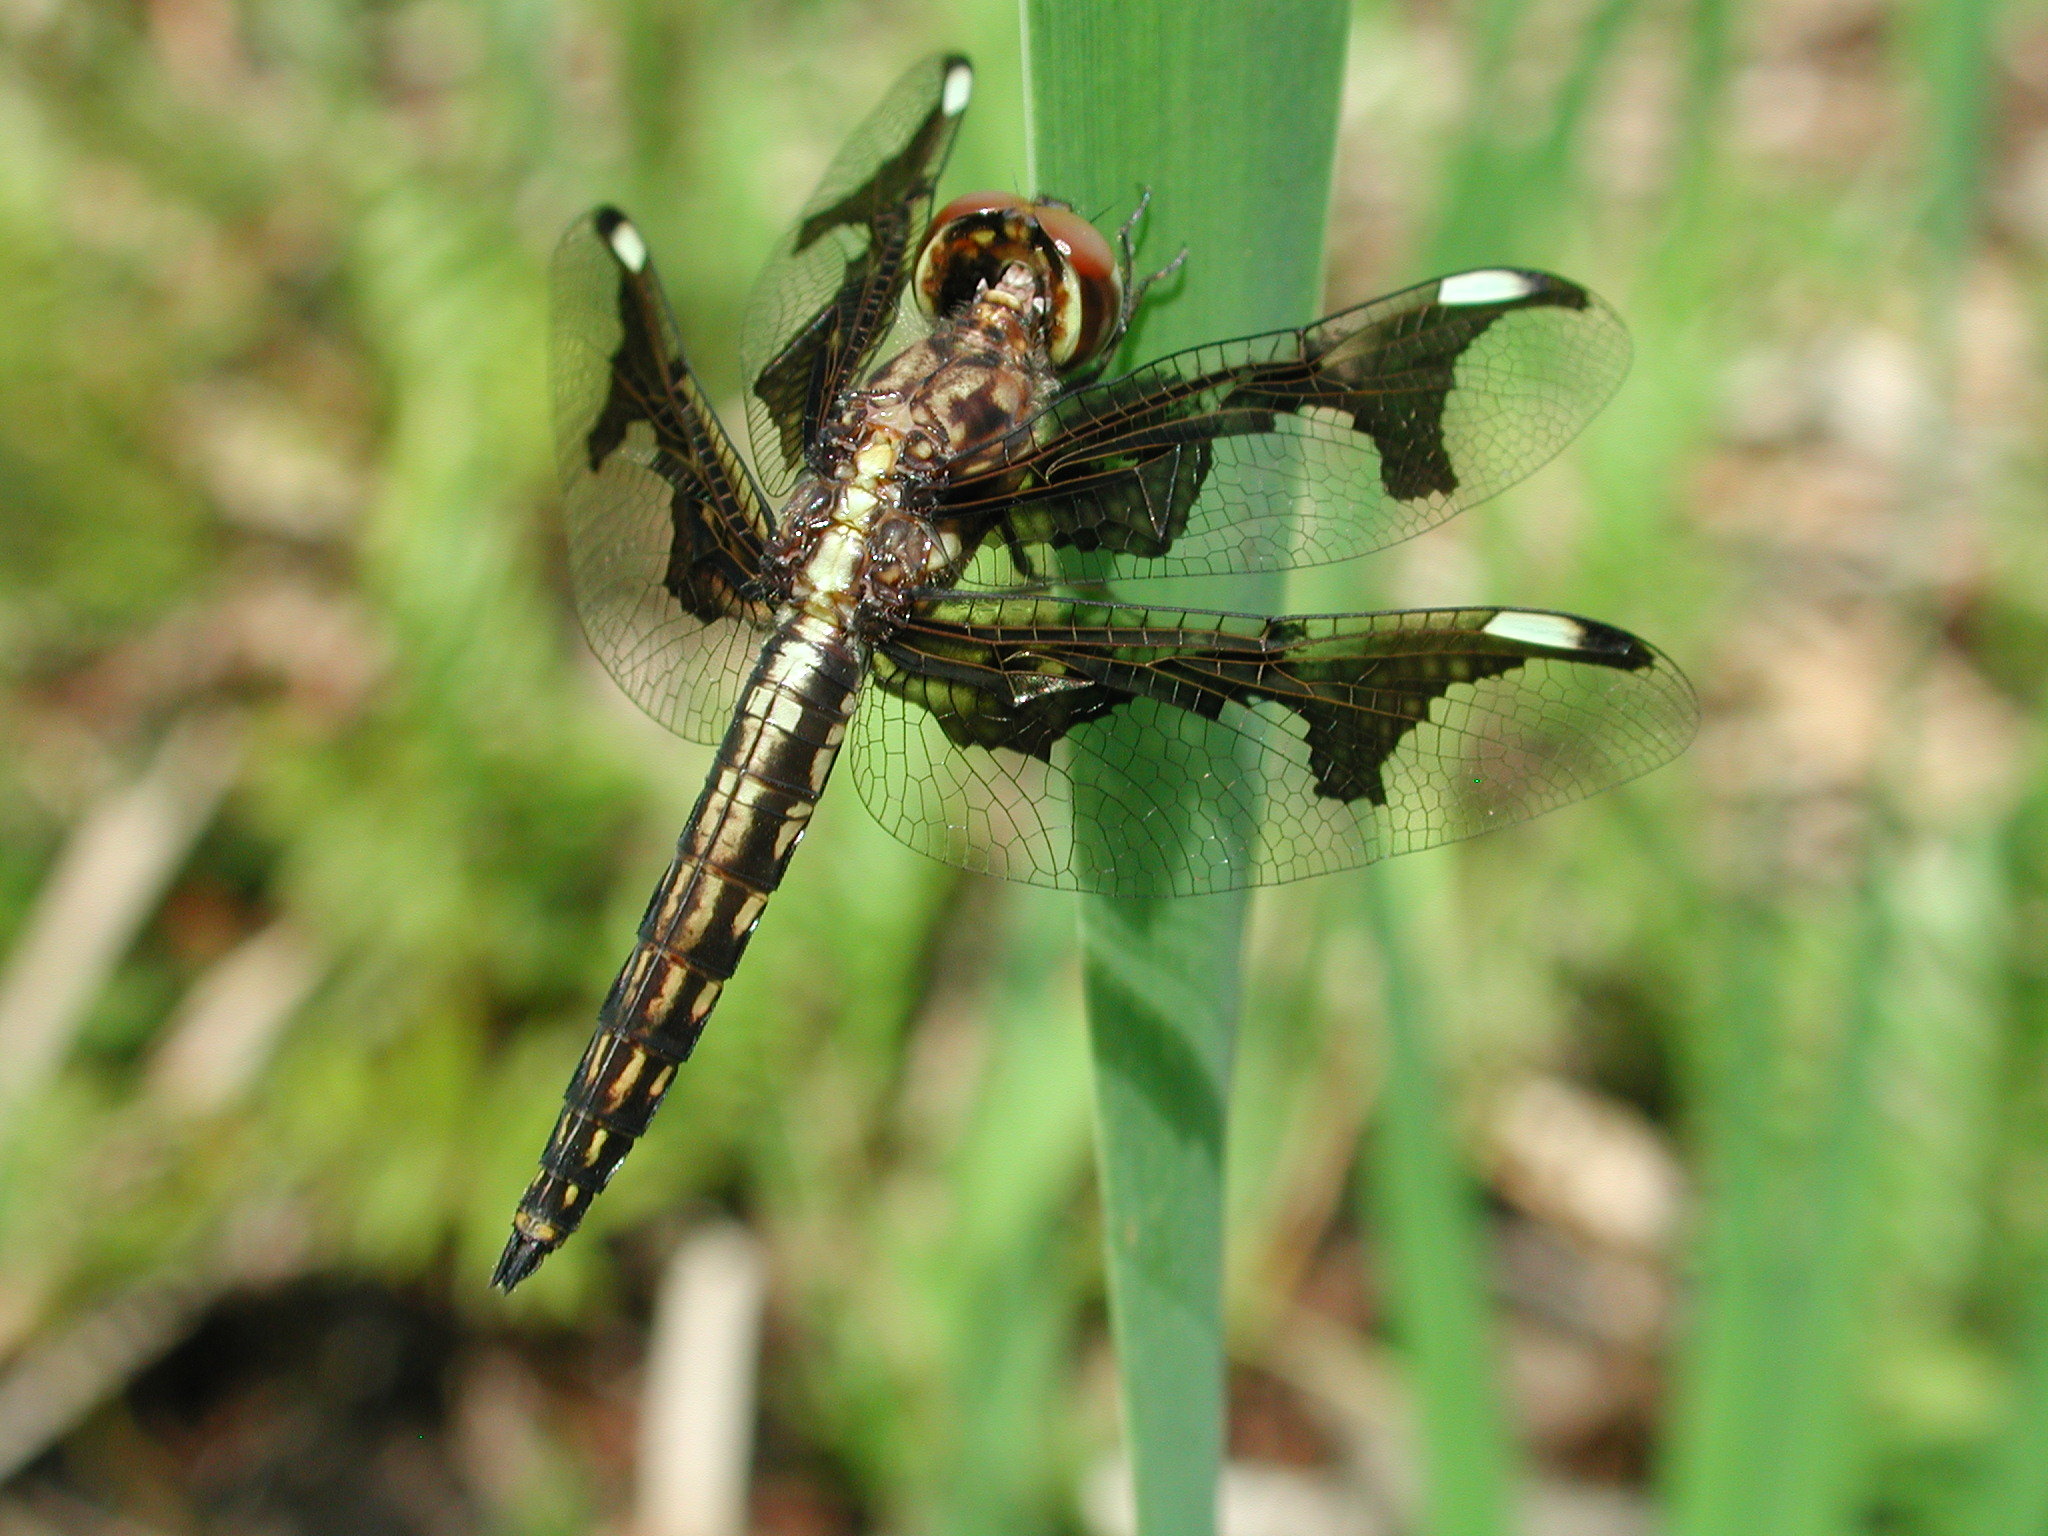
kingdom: Animalia
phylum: Arthropoda
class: Insecta
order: Odonata
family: Libellulidae
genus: Palpopleura
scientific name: Palpopleura portia
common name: Portia widow
